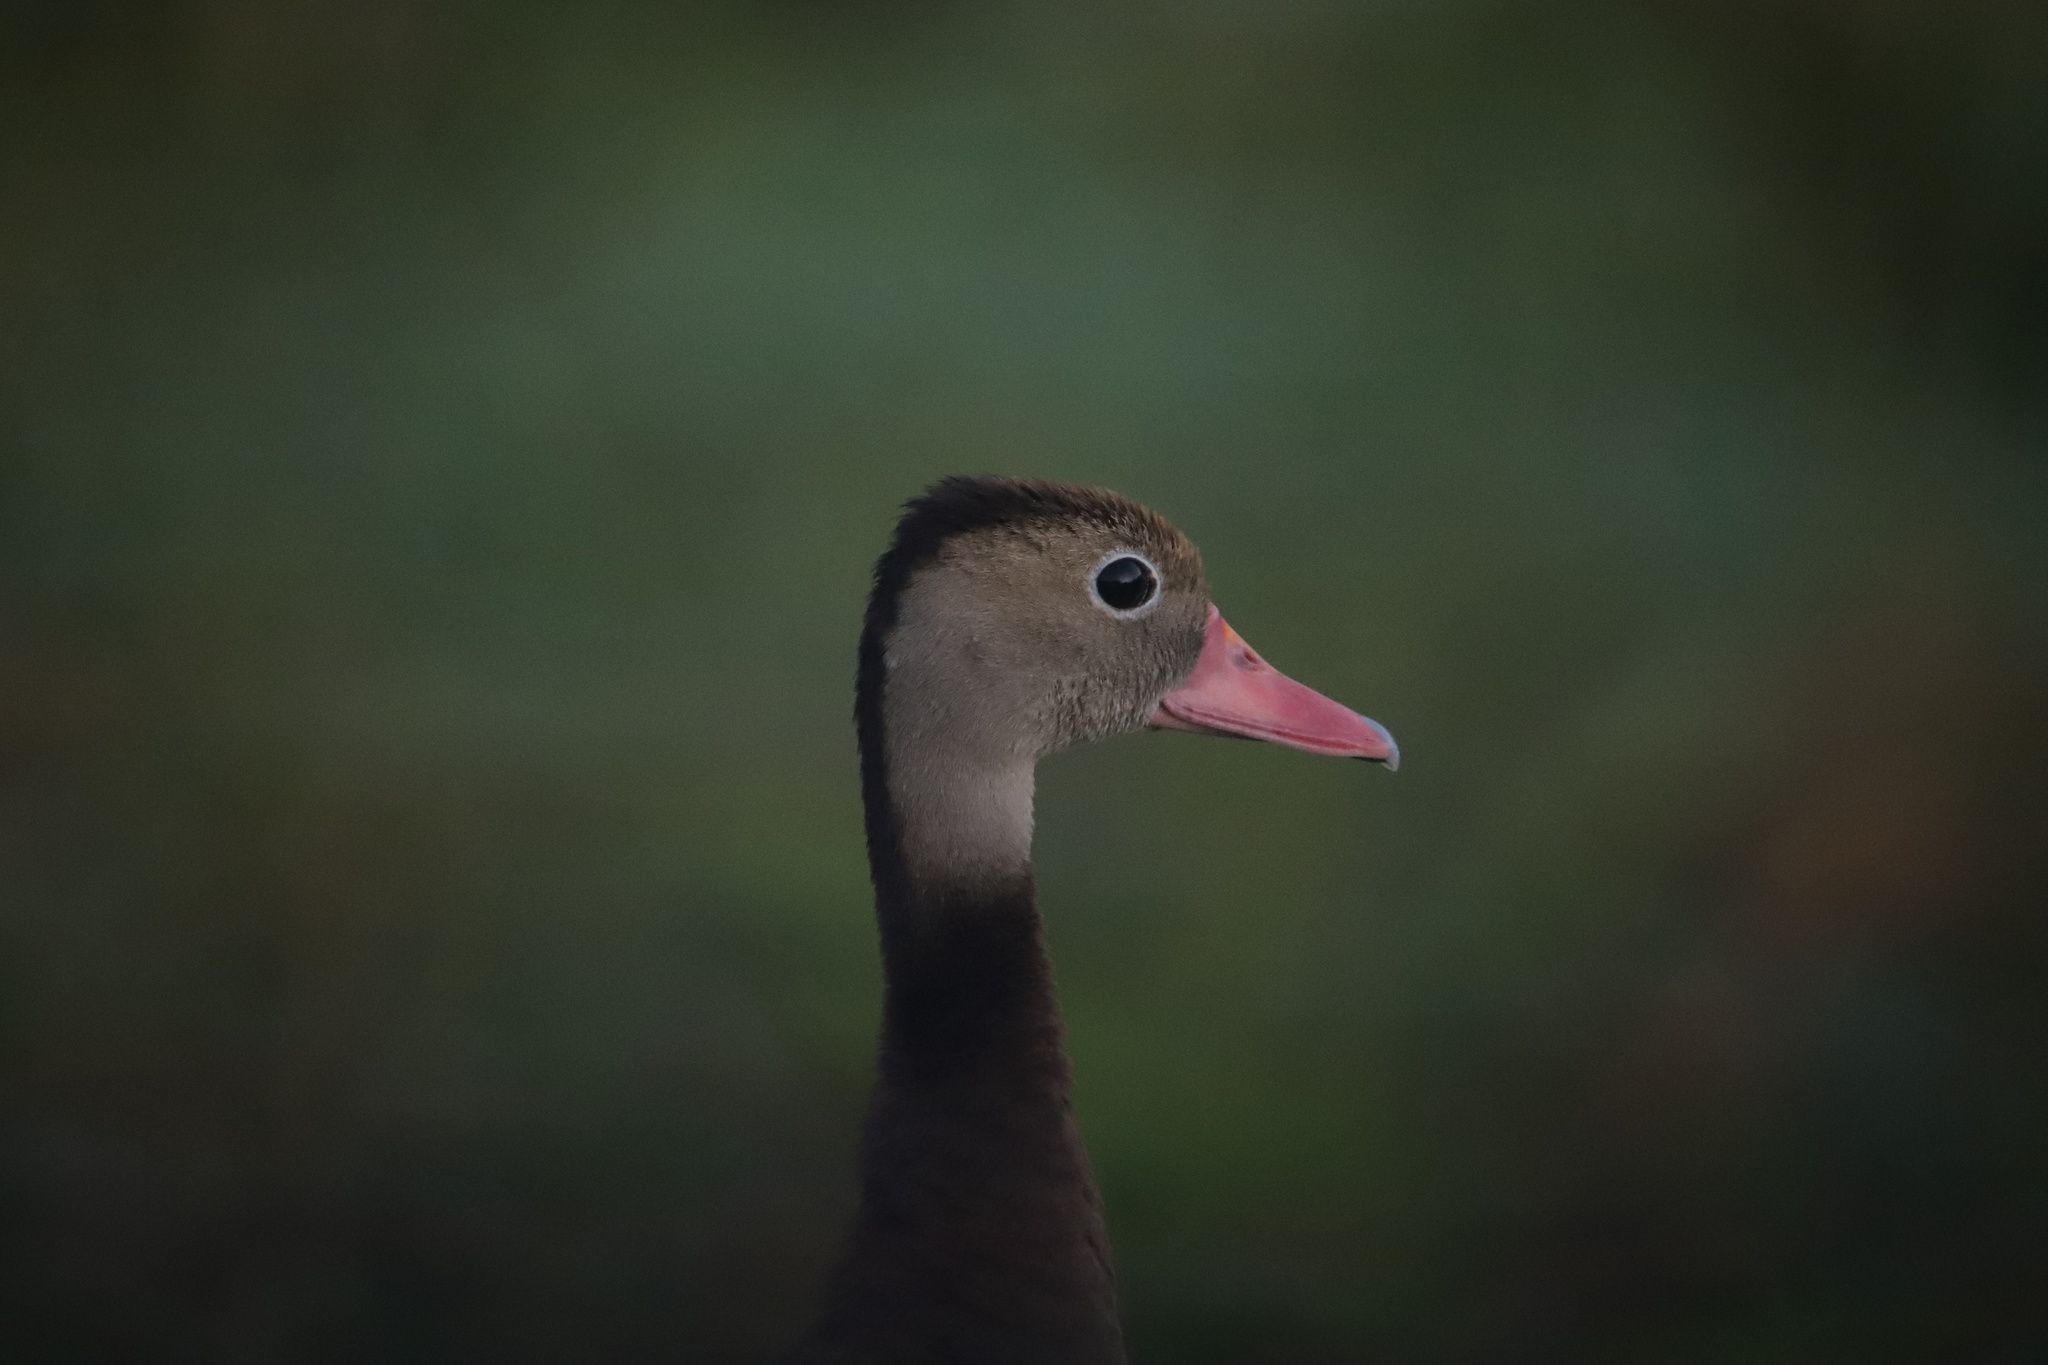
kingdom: Animalia
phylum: Chordata
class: Aves
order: Anseriformes
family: Anatidae
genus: Dendrocygna
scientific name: Dendrocygna autumnalis
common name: Black-bellied whistling duck
